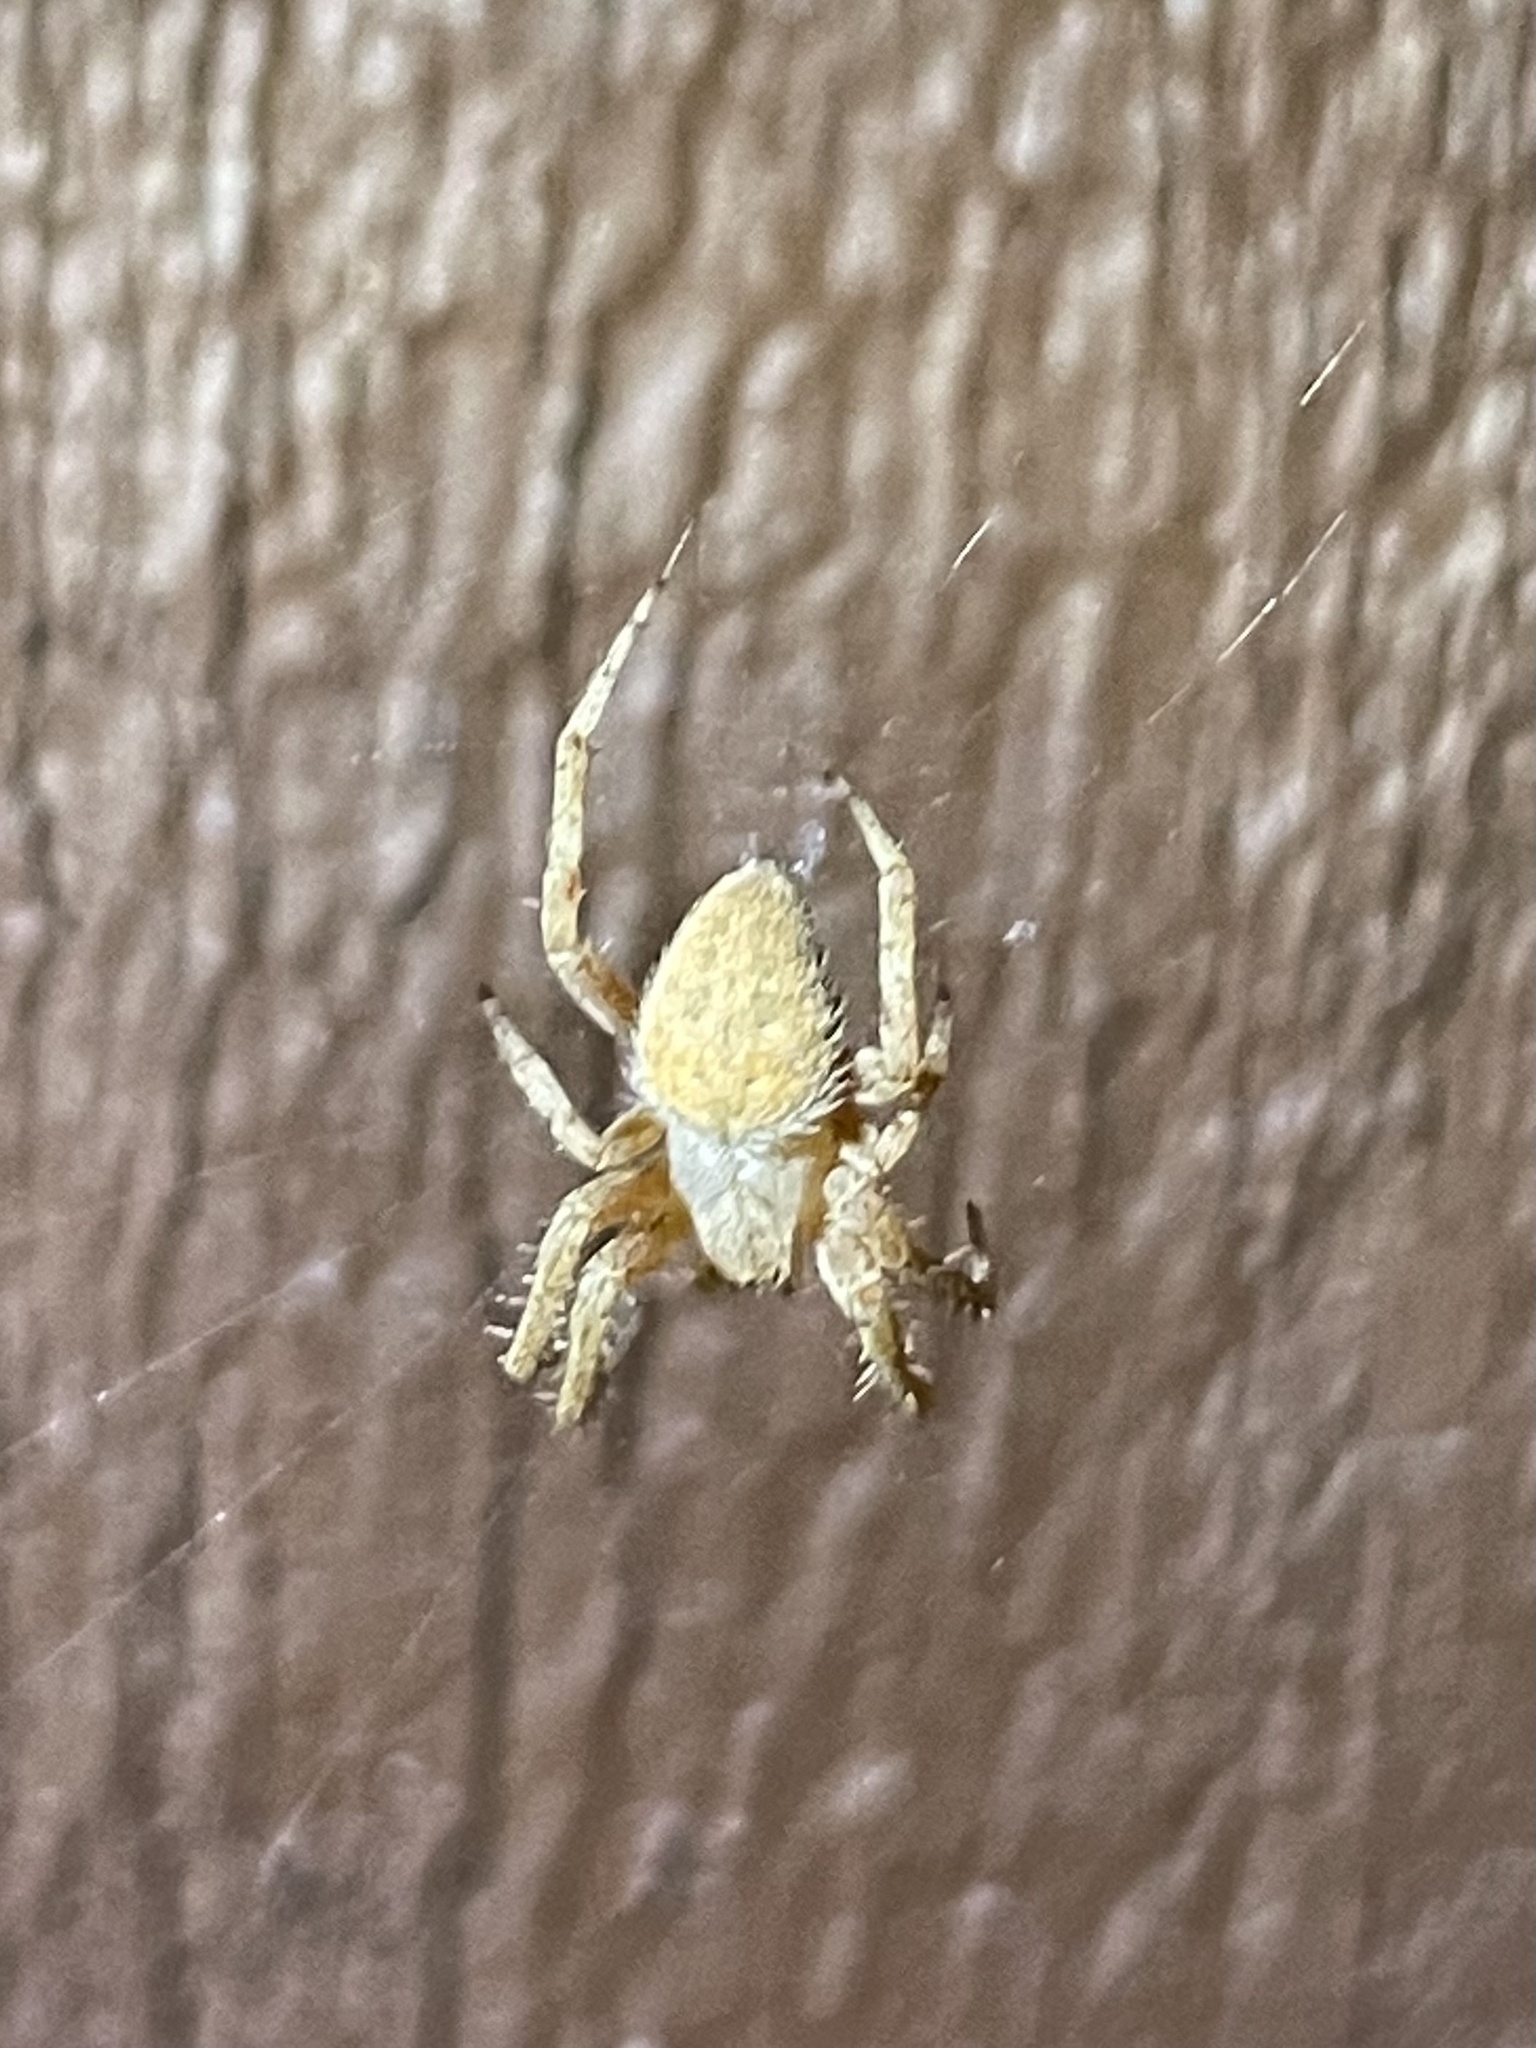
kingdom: Animalia
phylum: Arthropoda
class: Arachnida
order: Araneae
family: Araneidae
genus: Neoscona
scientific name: Neoscona crucifera
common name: Spotted orbweaver
